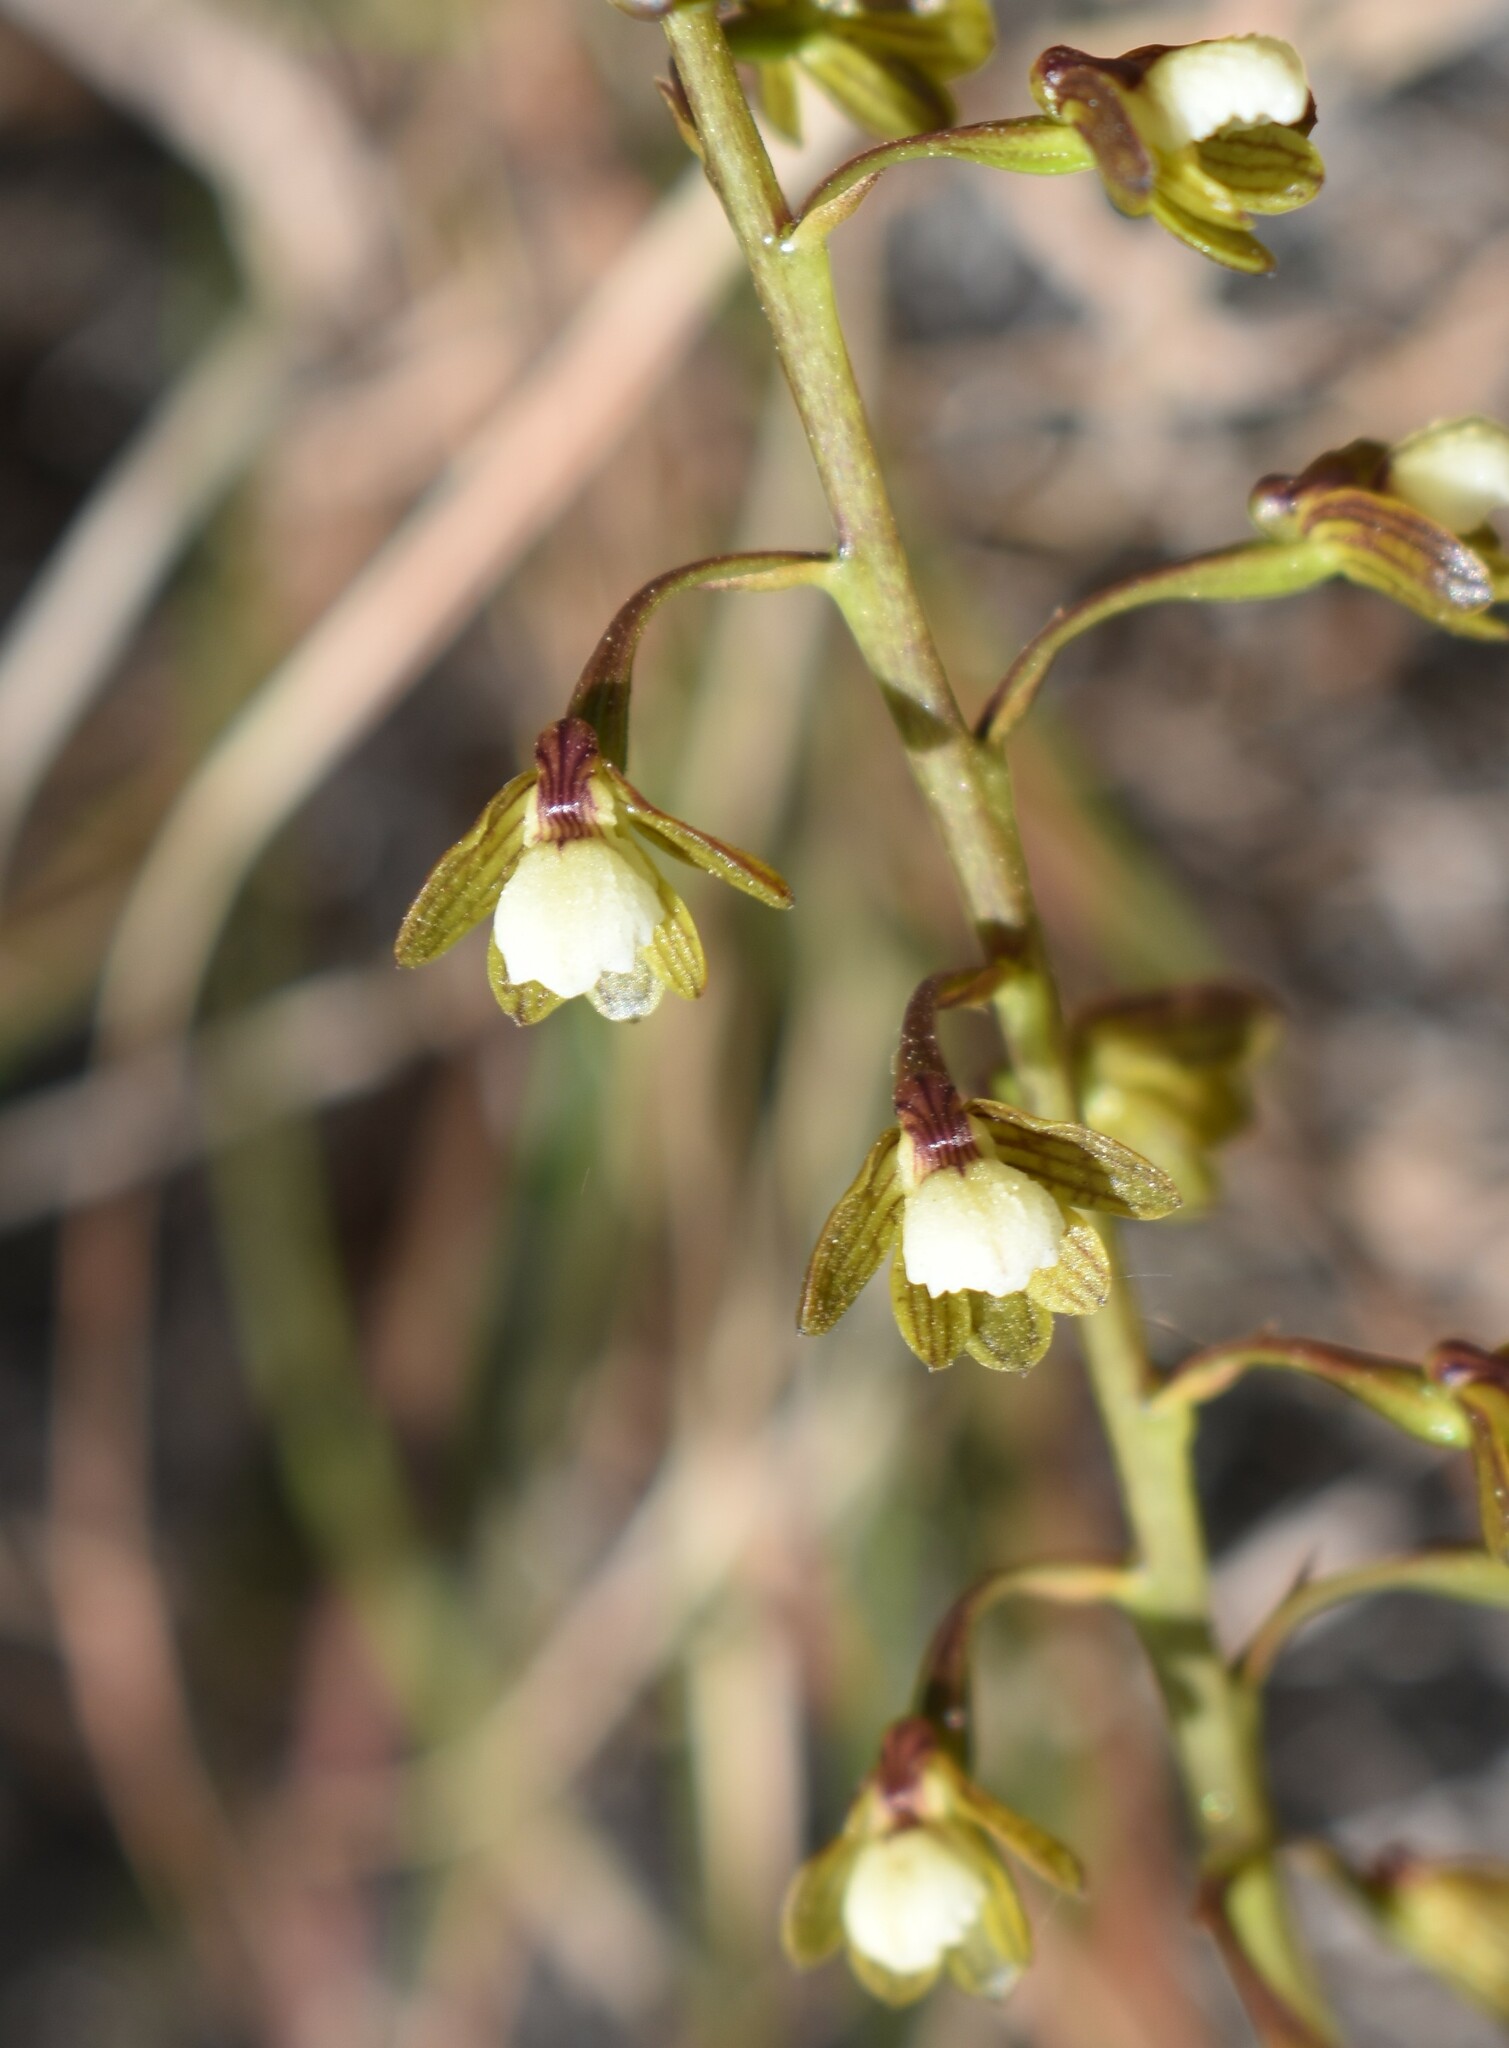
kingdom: Plantae
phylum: Tracheophyta
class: Liliopsida
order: Asparagales
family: Orchidaceae
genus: Eulophia
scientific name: Eulophia cochlearis
